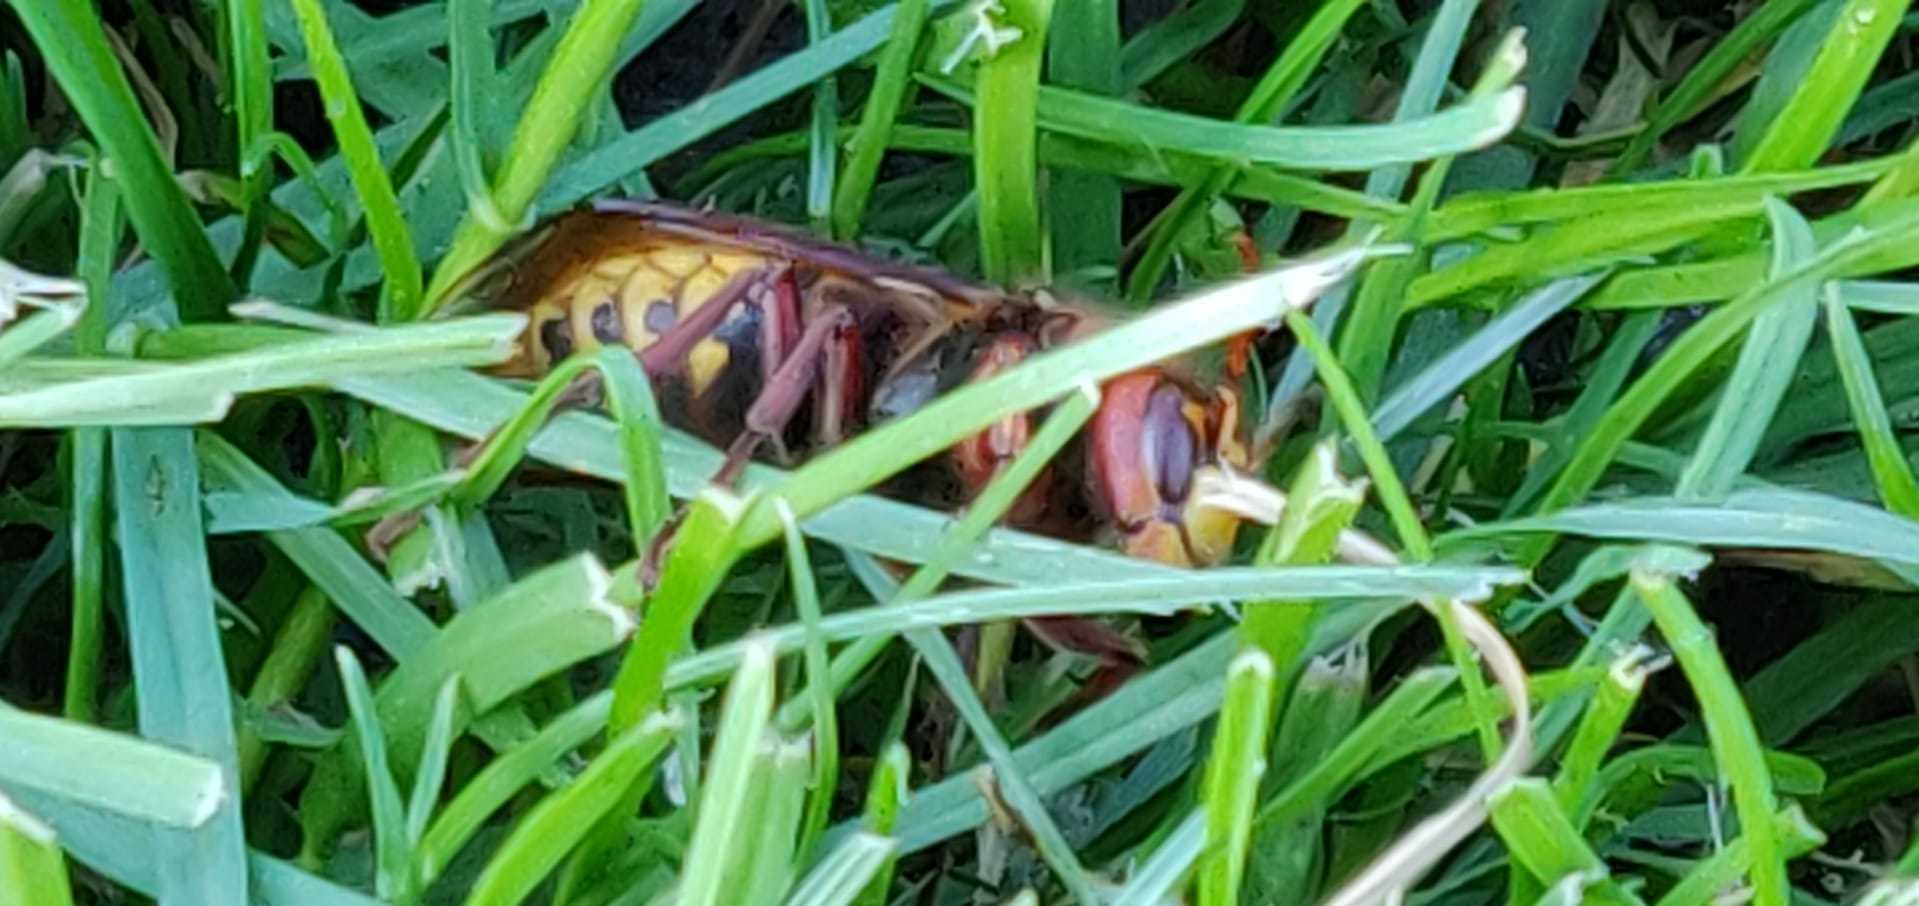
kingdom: Animalia
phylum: Arthropoda
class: Insecta
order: Hymenoptera
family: Vespidae
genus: Vespa
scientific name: Vespa crabro
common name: Hornet
